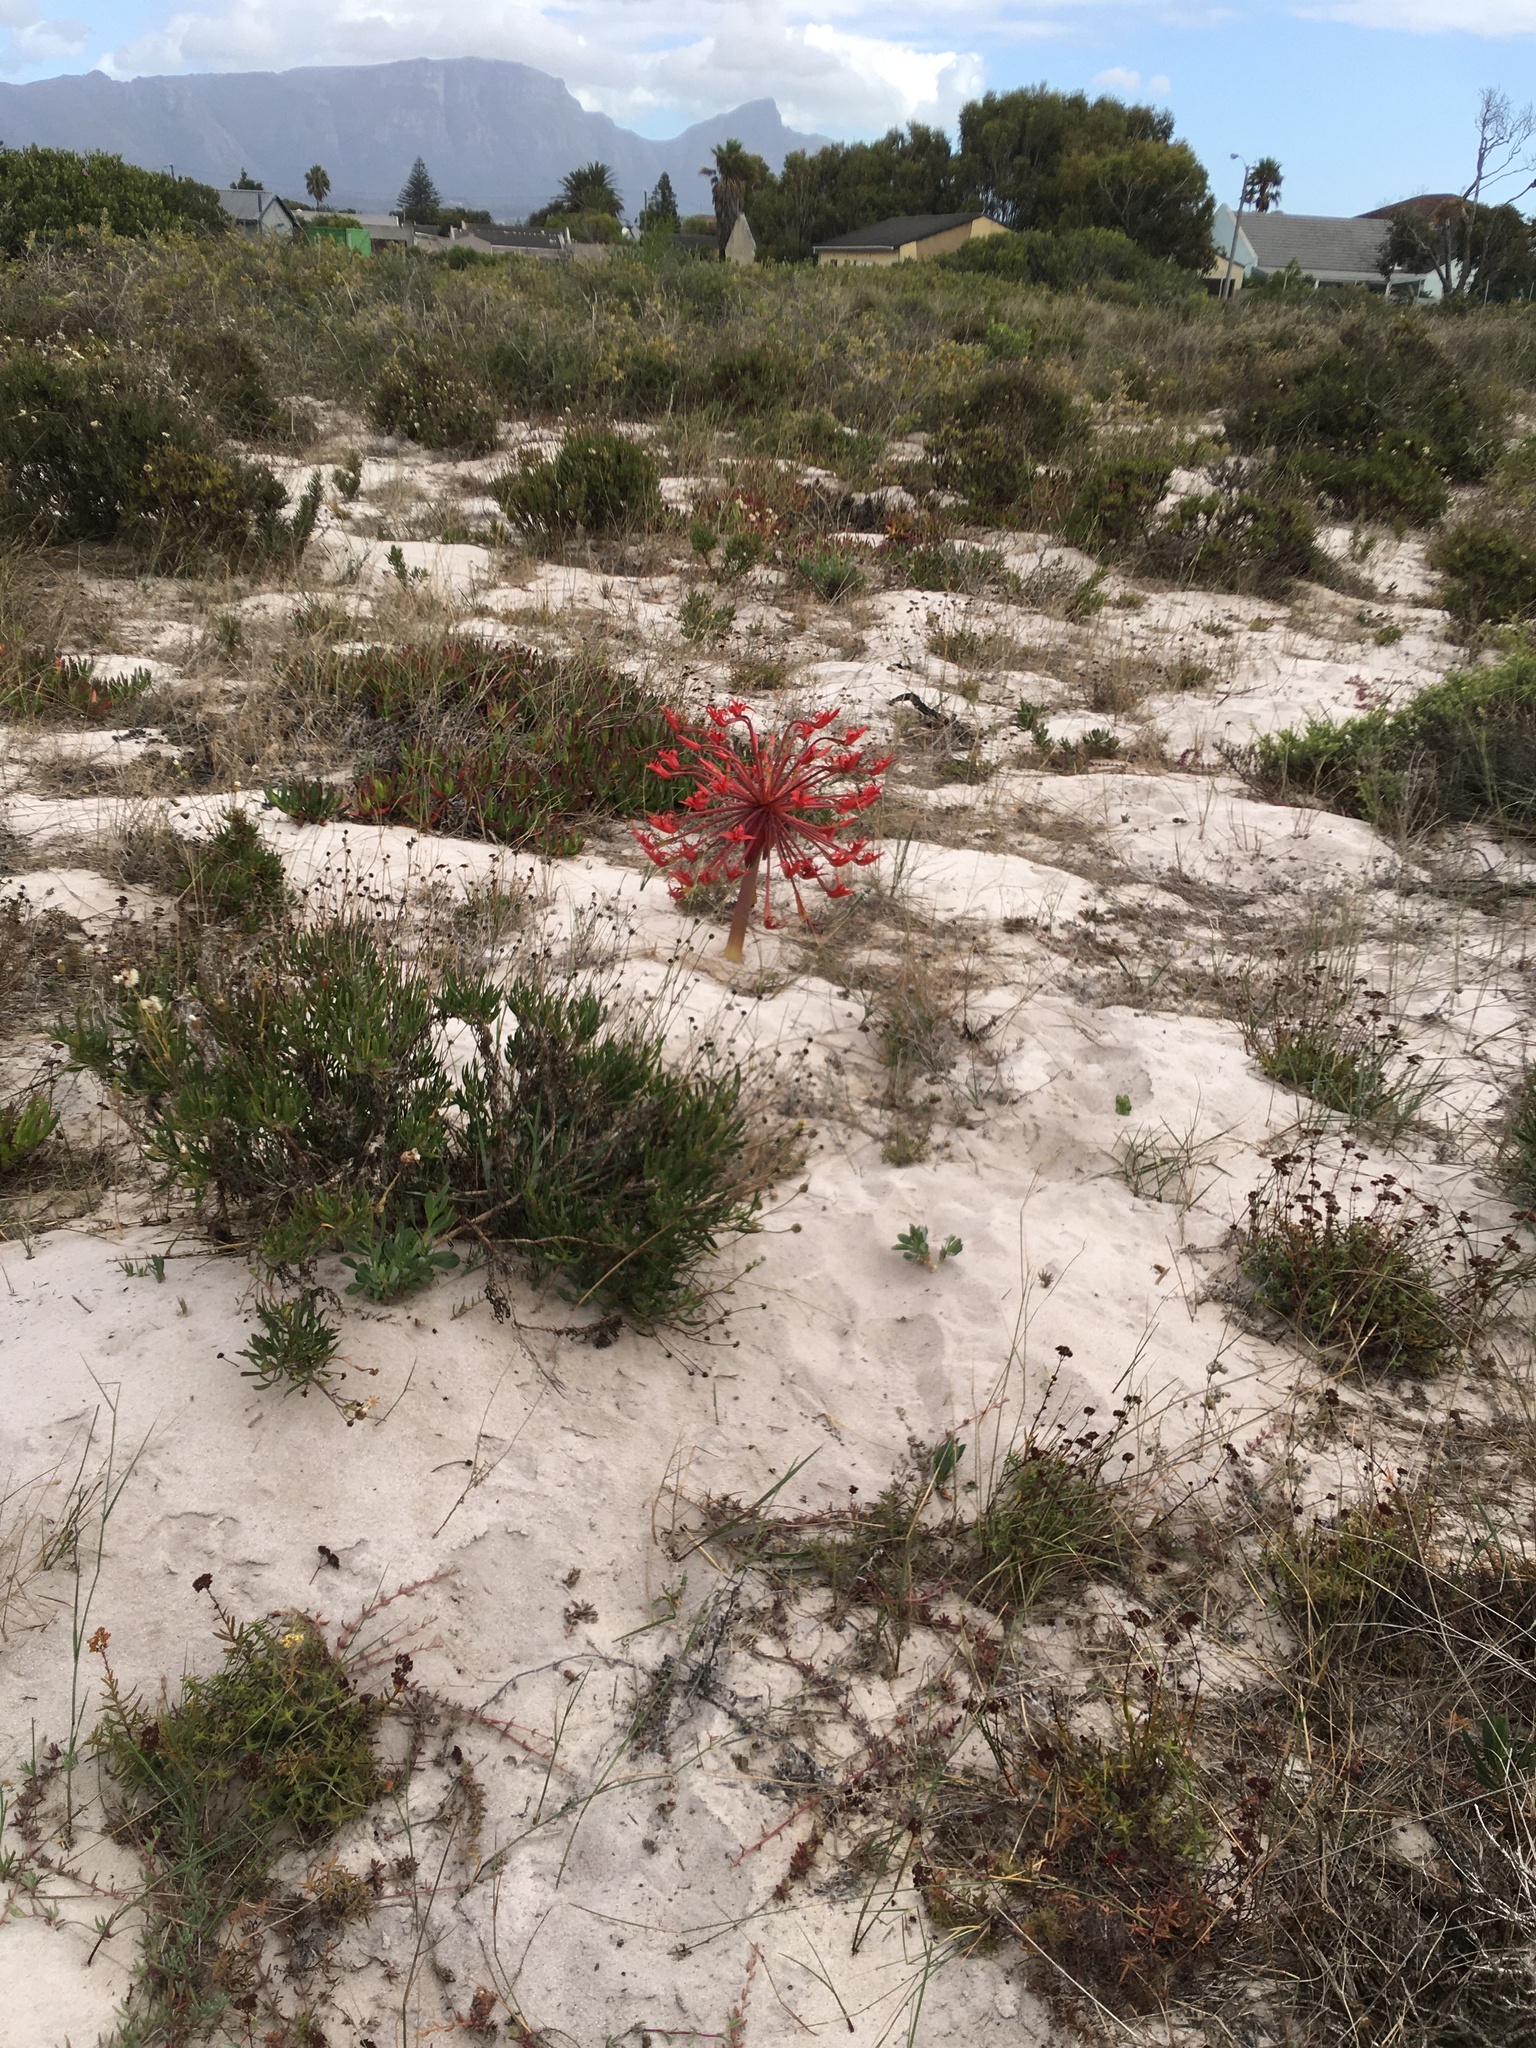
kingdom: Plantae
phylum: Tracheophyta
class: Liliopsida
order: Asparagales
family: Amaryllidaceae
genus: Brunsvigia
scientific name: Brunsvigia orientalis
